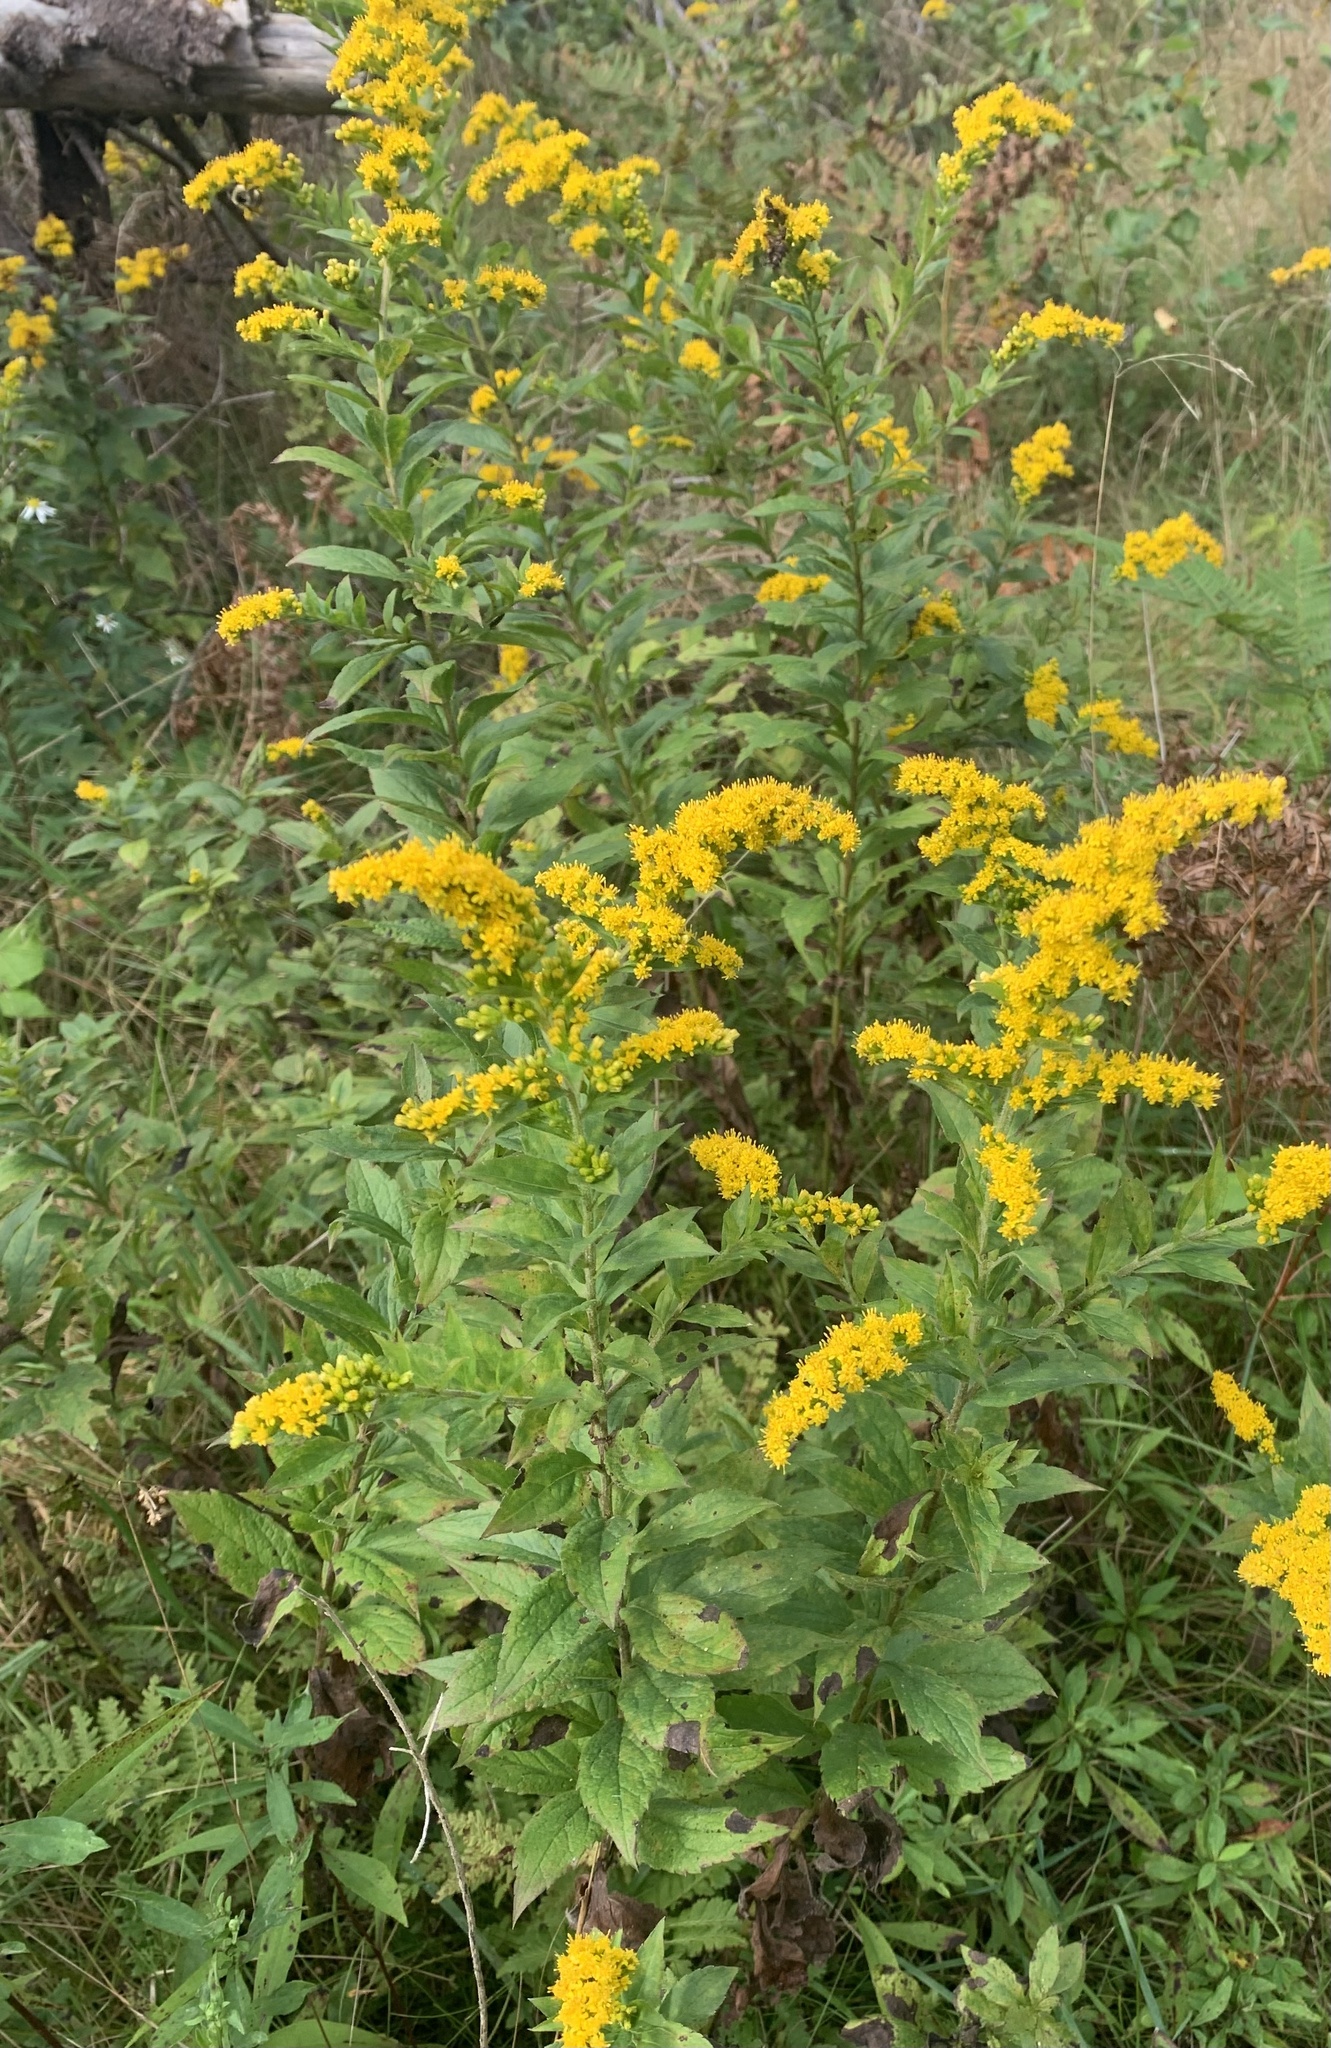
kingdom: Plantae
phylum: Tracheophyta
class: Magnoliopsida
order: Asterales
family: Asteraceae
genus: Solidago
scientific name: Solidago rugosa
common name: Rough-stemmed goldenrod
